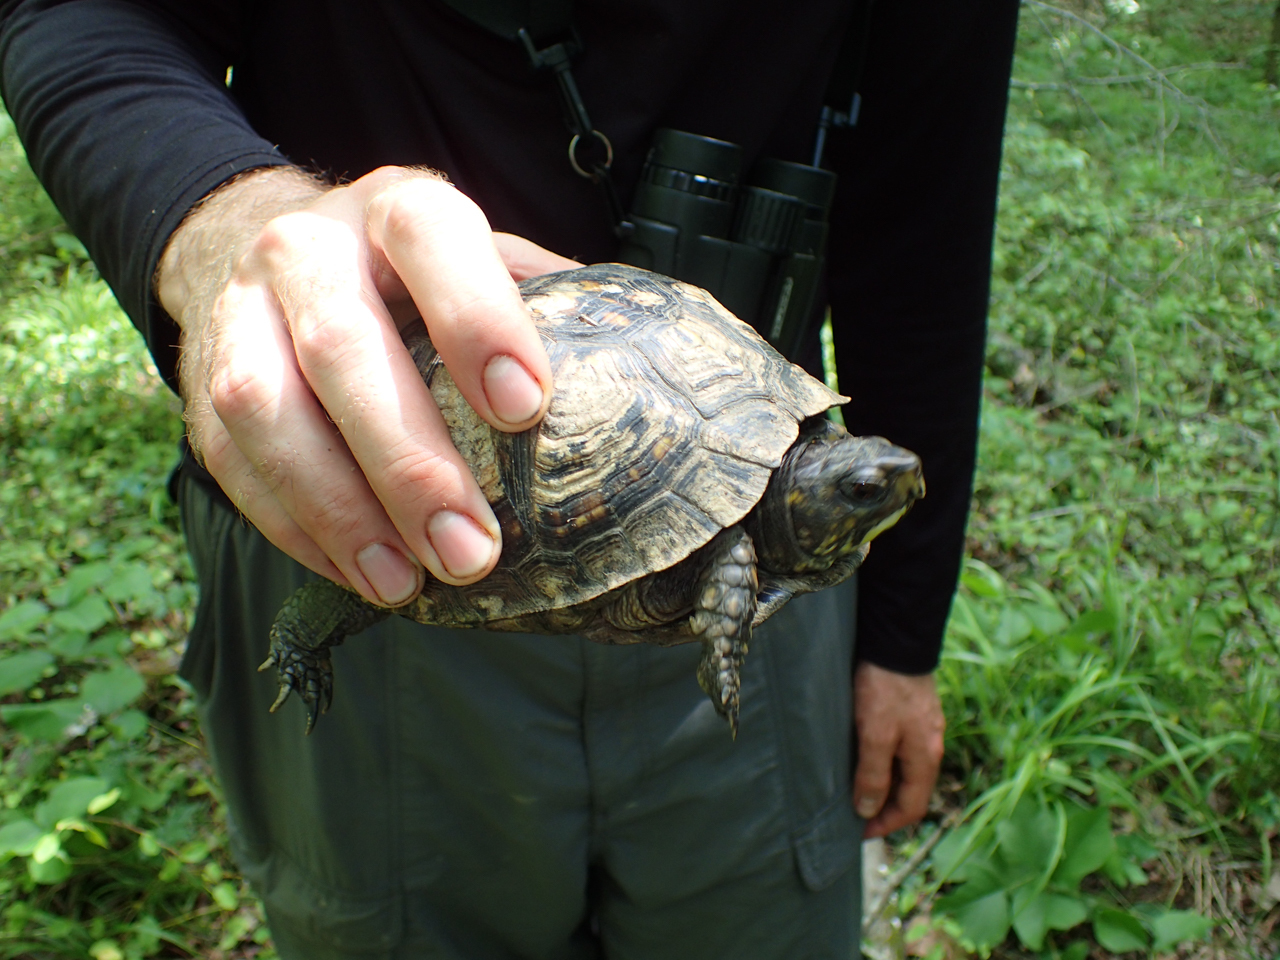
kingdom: Animalia
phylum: Chordata
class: Testudines
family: Emydidae
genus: Terrapene
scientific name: Terrapene carolina
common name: Common box turtle
